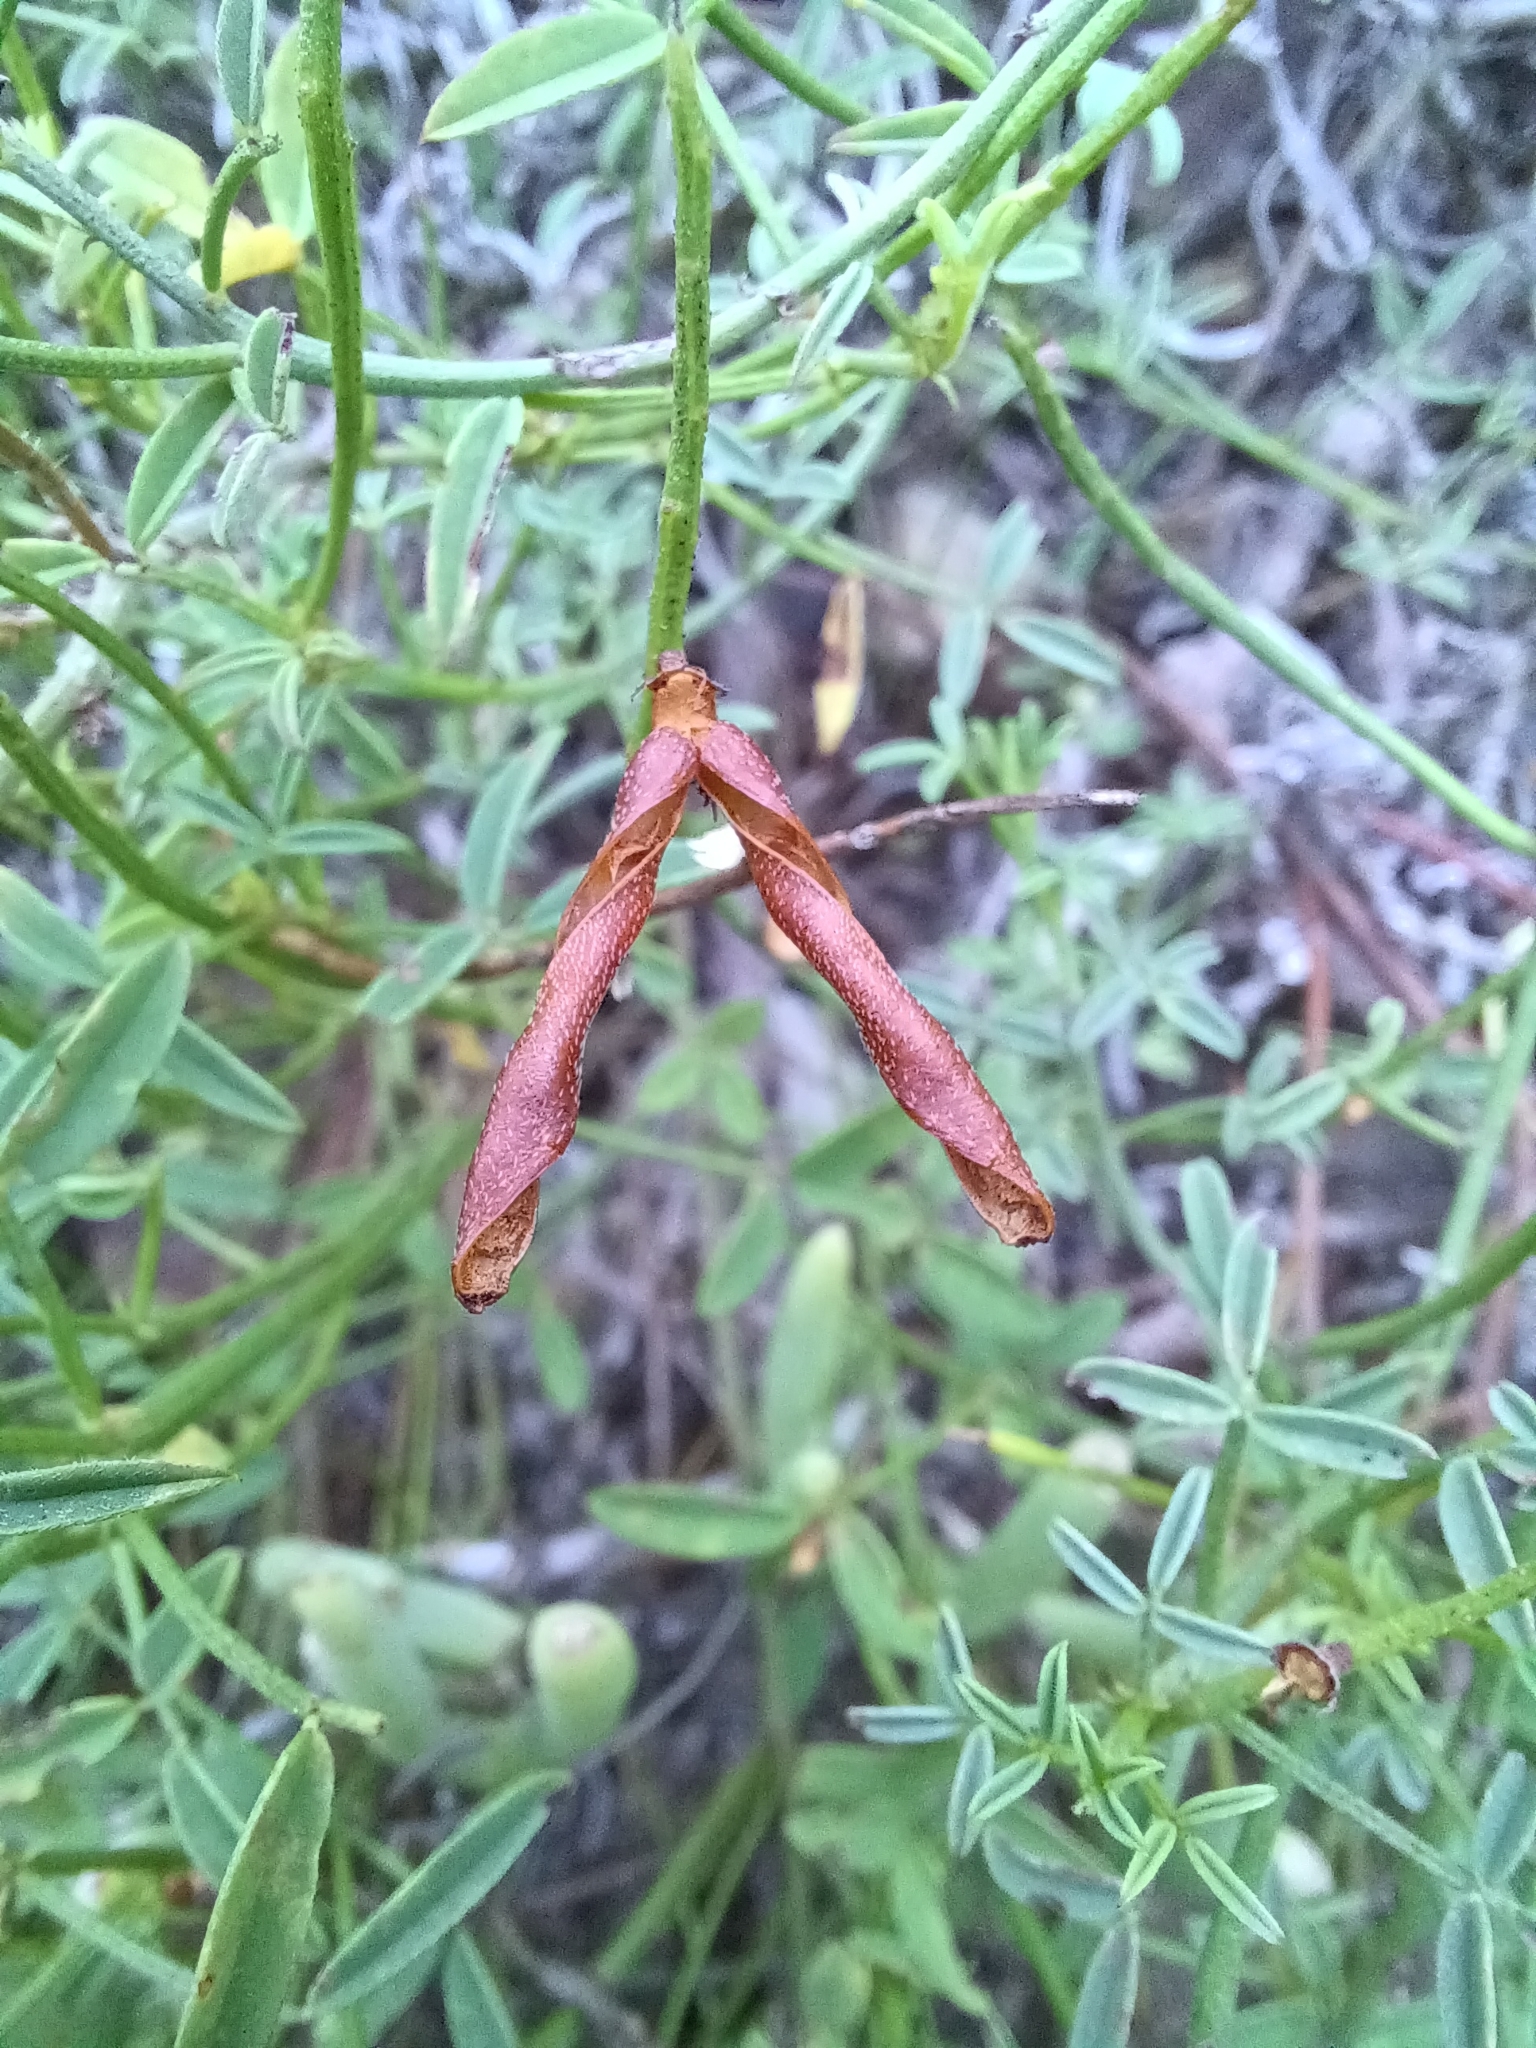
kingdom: Plantae
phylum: Tracheophyta
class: Magnoliopsida
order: Fabales
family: Fabaceae
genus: Indigofera
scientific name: Indigofera heterophylla
